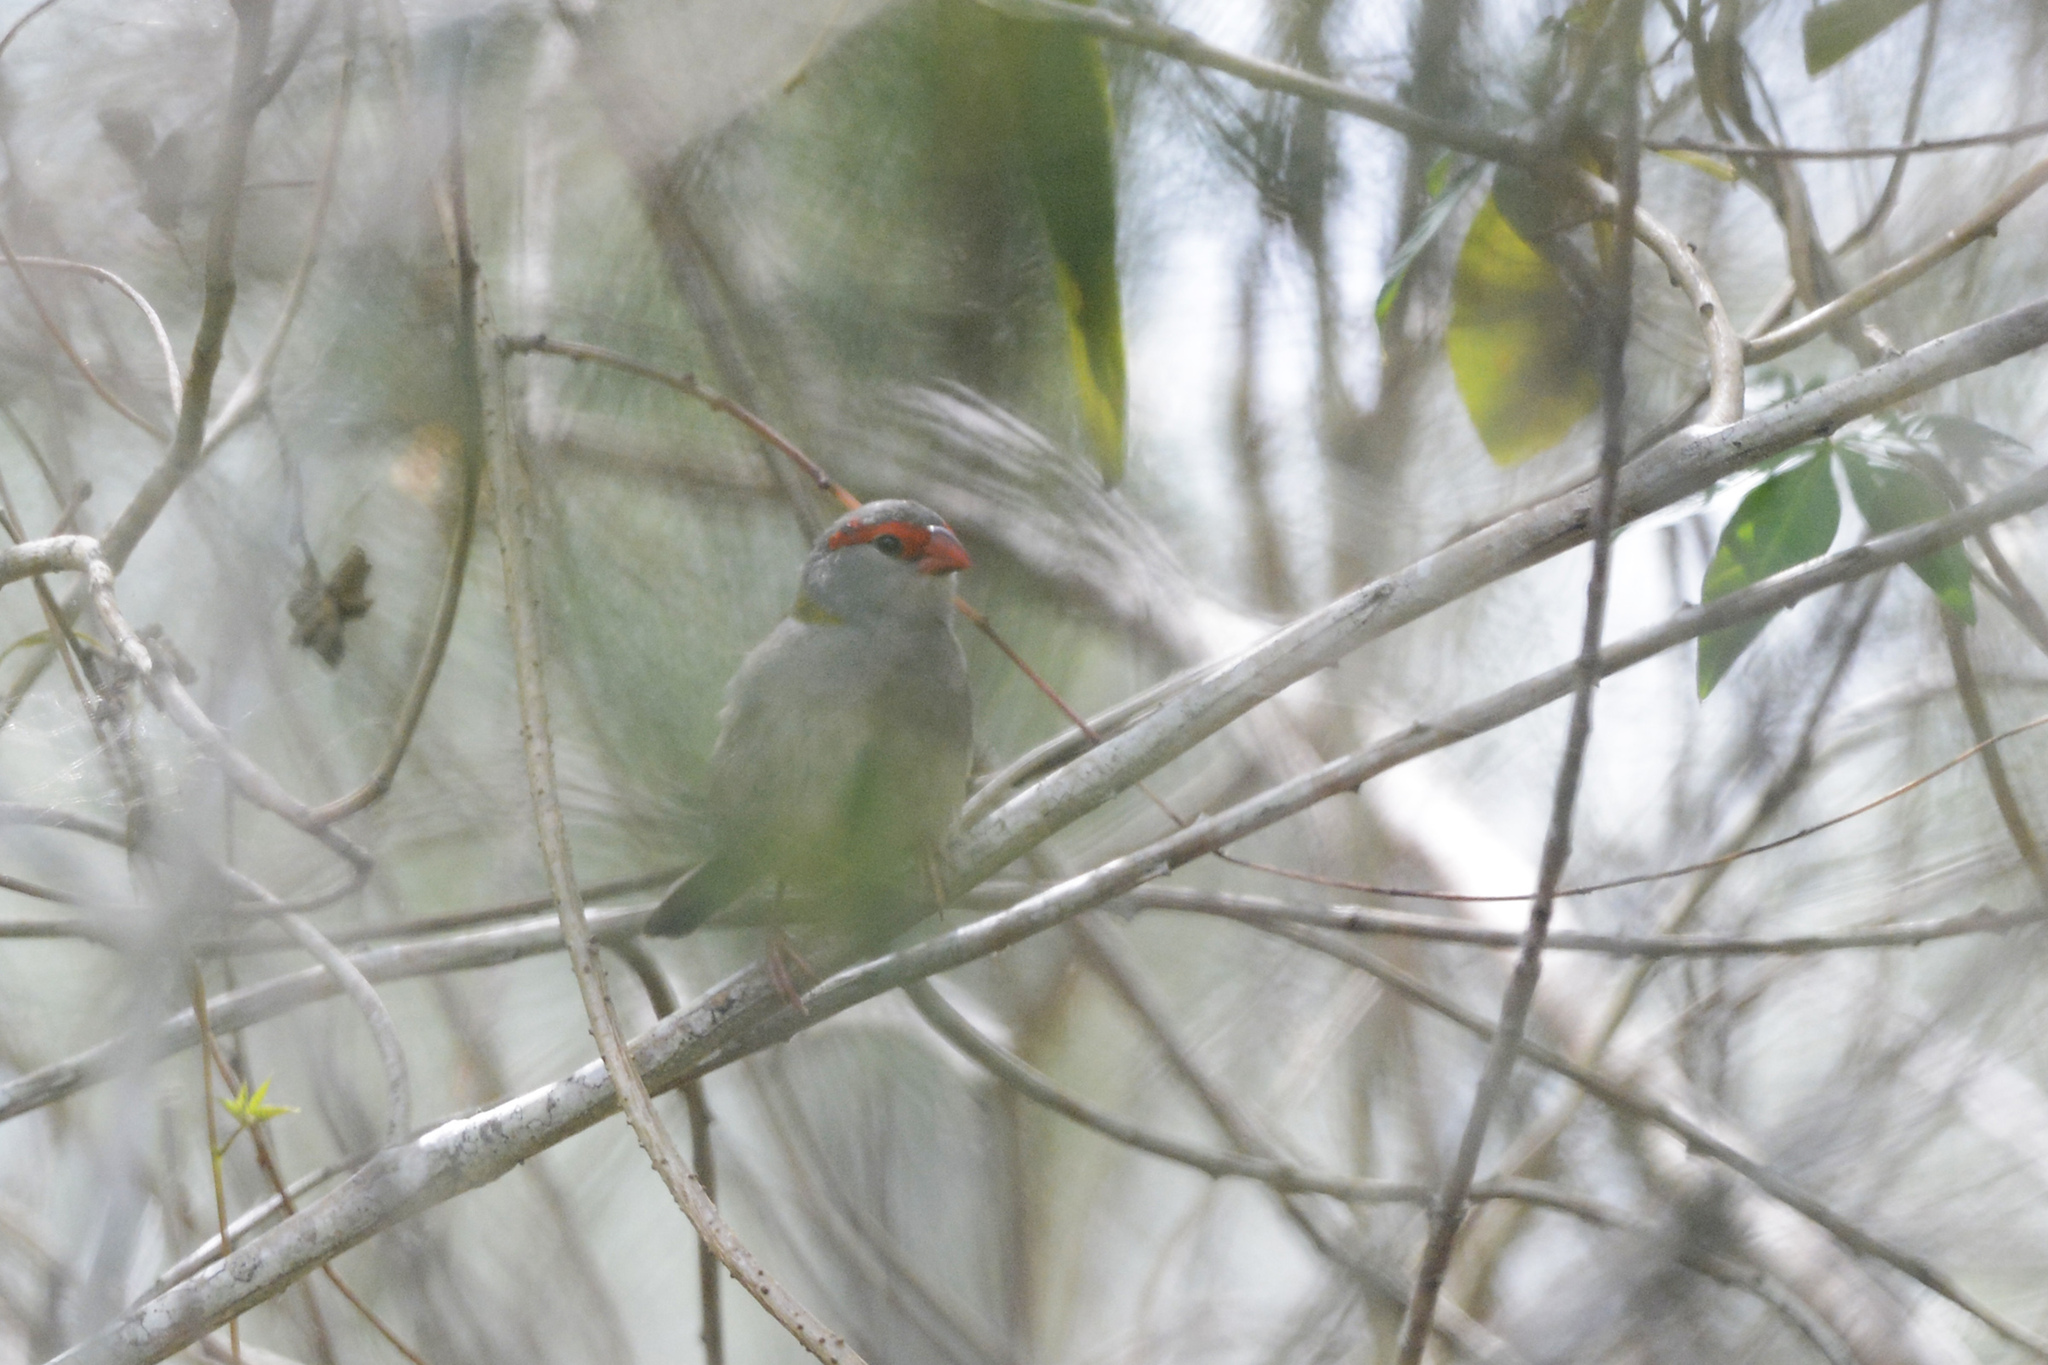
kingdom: Animalia
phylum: Chordata
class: Aves
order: Passeriformes
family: Estrildidae
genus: Neochmia
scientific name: Neochmia temporalis
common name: Red-browed finch
